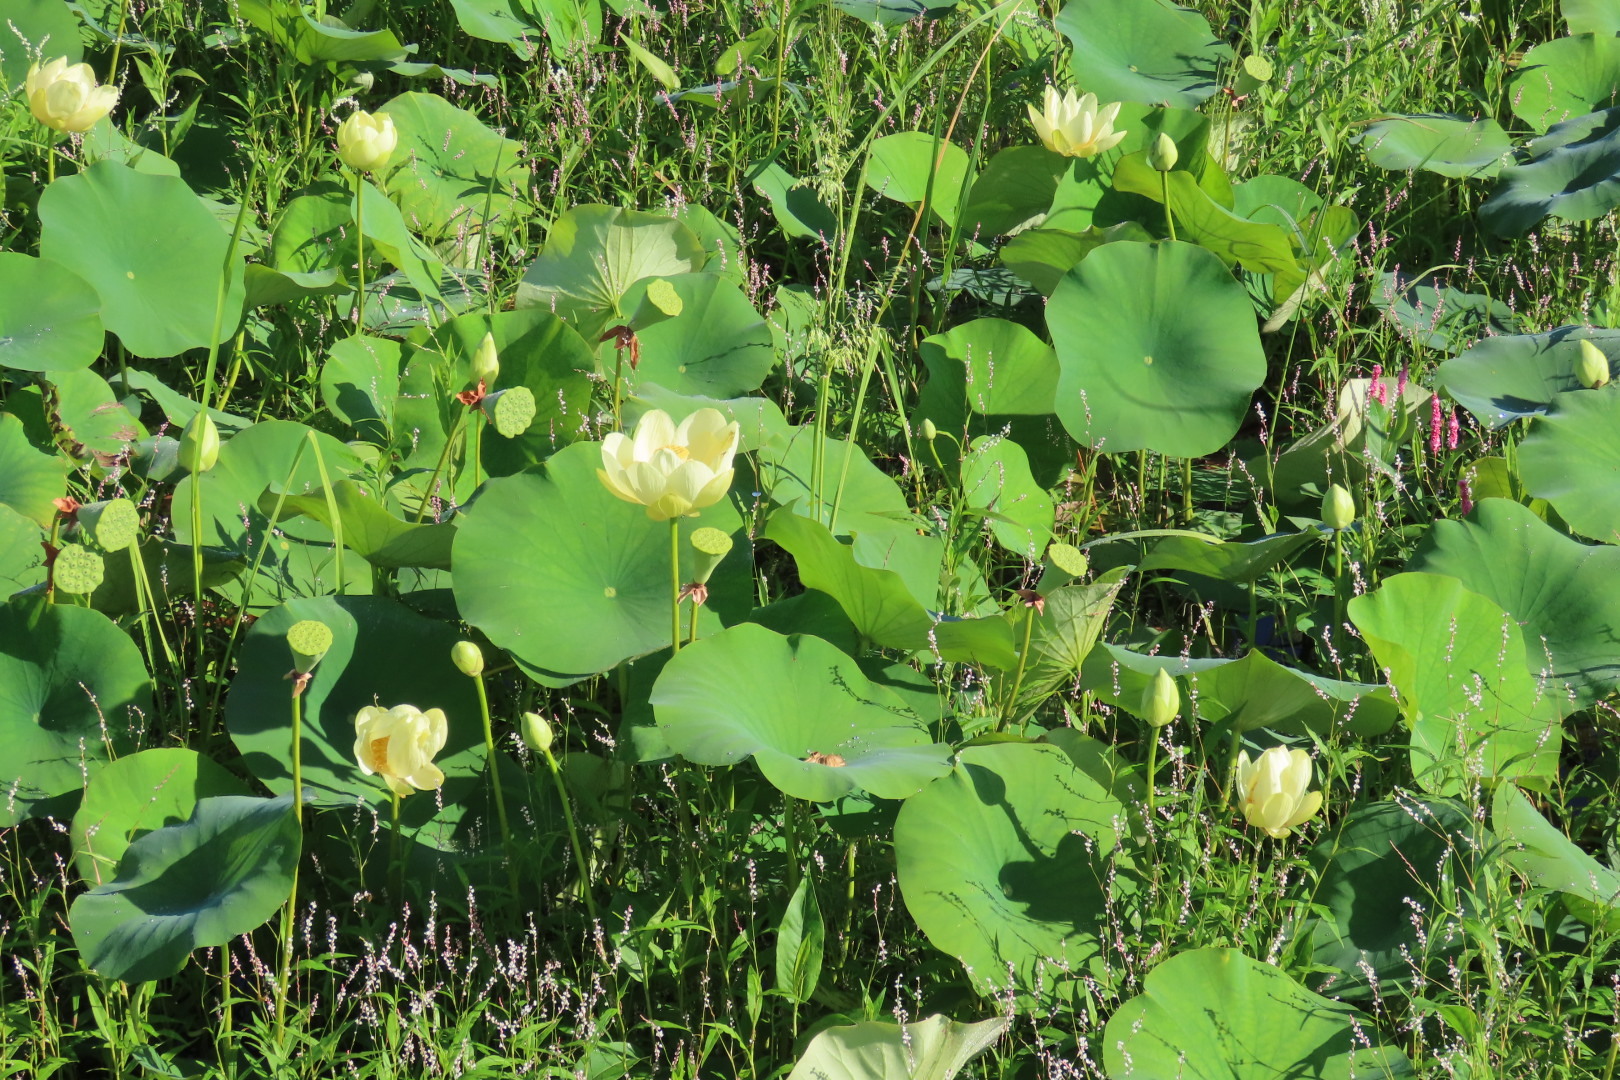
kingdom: Plantae
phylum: Tracheophyta
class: Magnoliopsida
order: Proteales
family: Nelumbonaceae
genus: Nelumbo
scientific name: Nelumbo lutea
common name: American lotus
